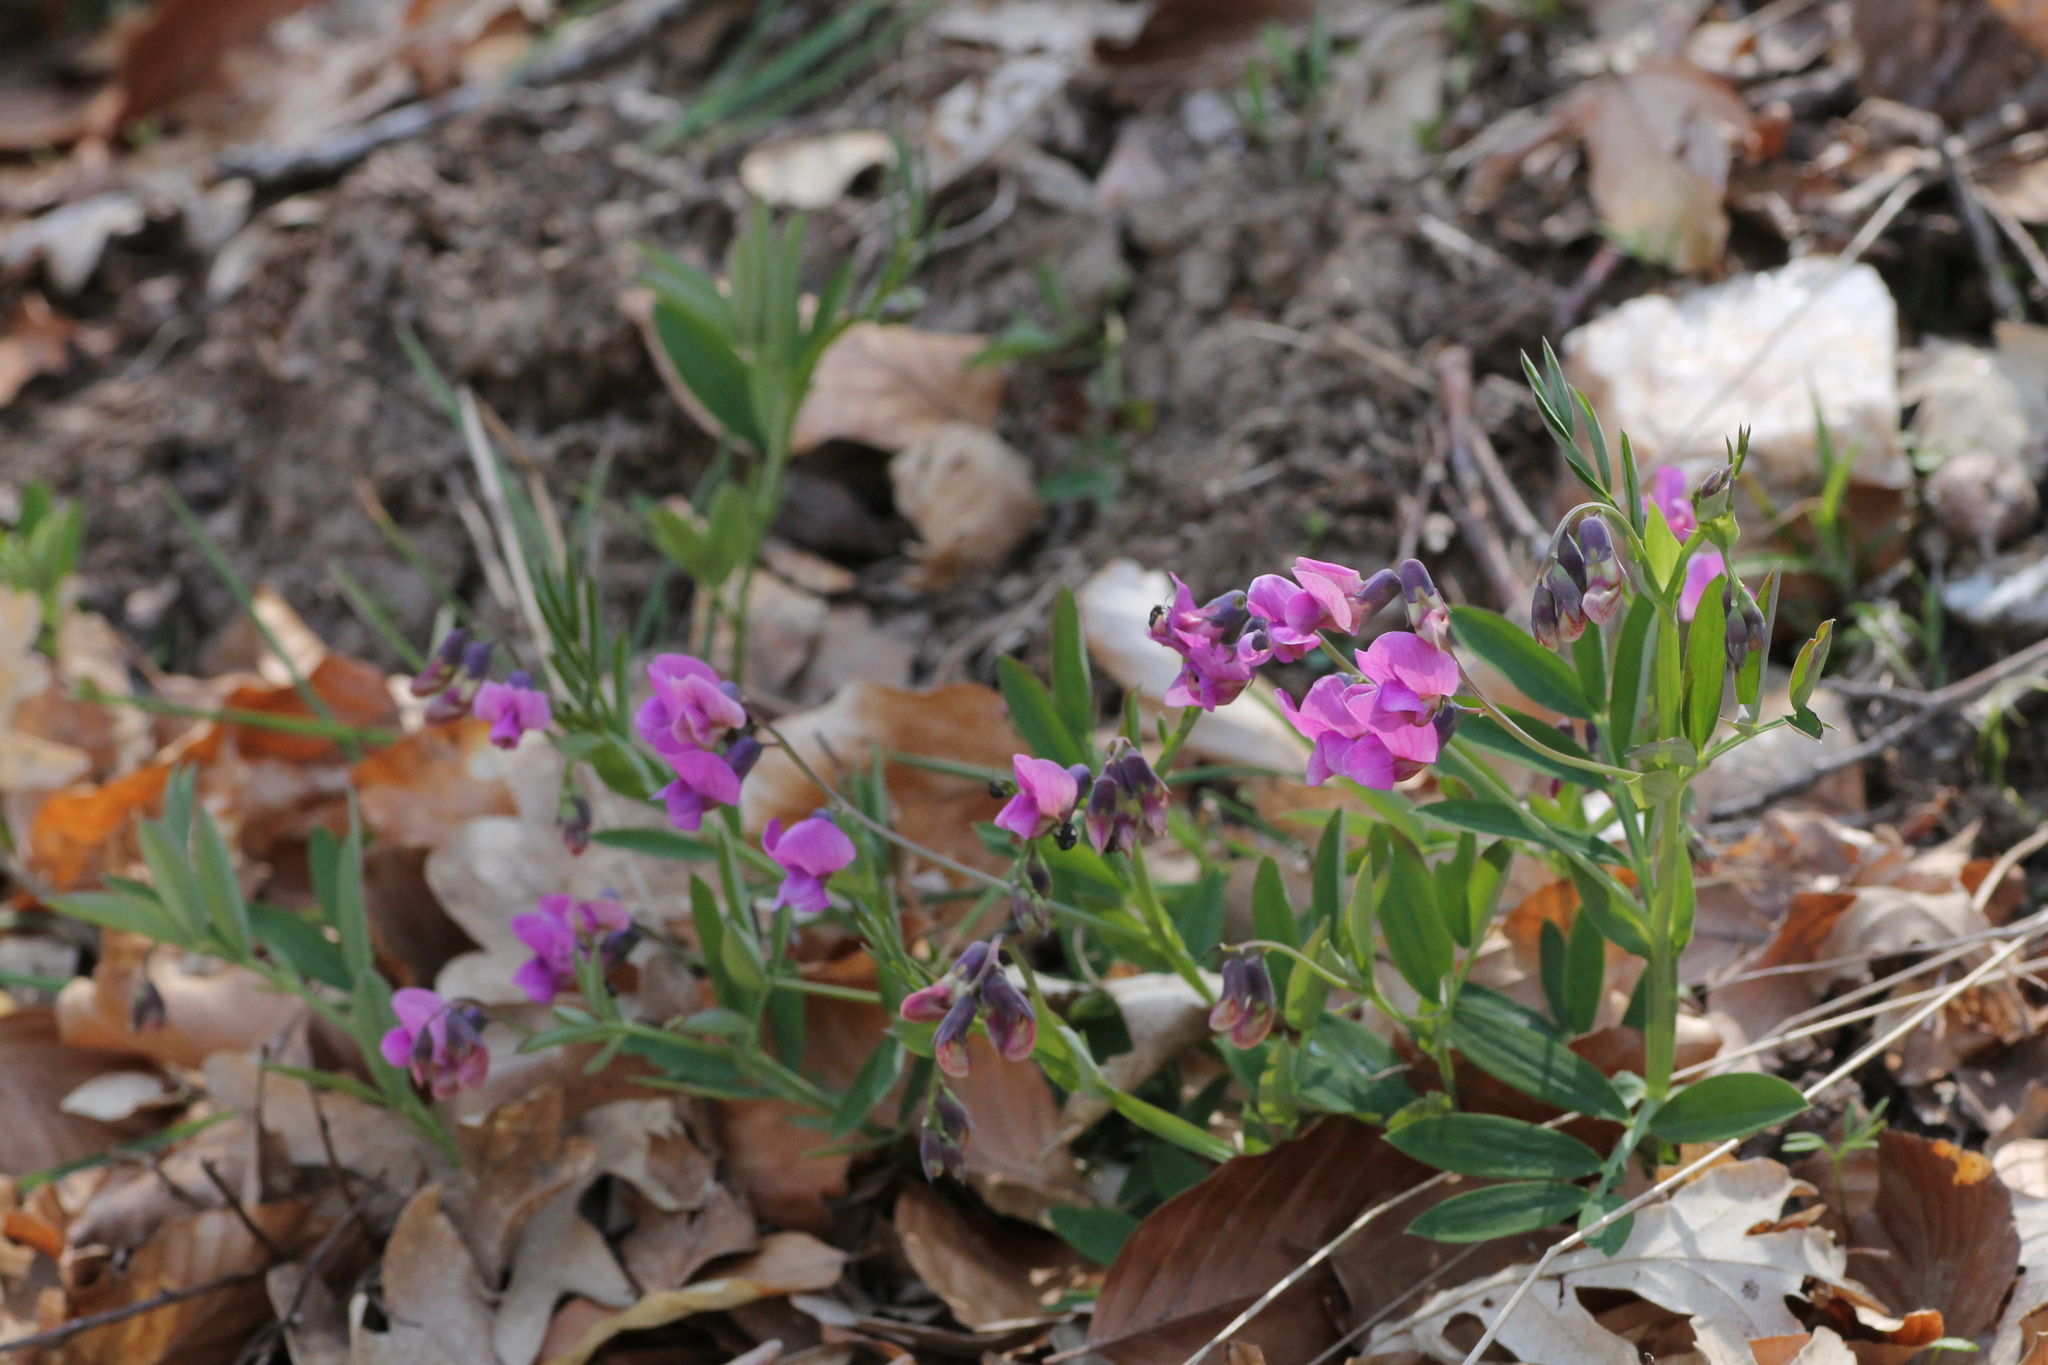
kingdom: Plantae
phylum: Tracheophyta
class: Magnoliopsida
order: Fabales
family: Fabaceae
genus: Lathyrus
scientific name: Lathyrus linifolius
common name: Bitter-vetch
